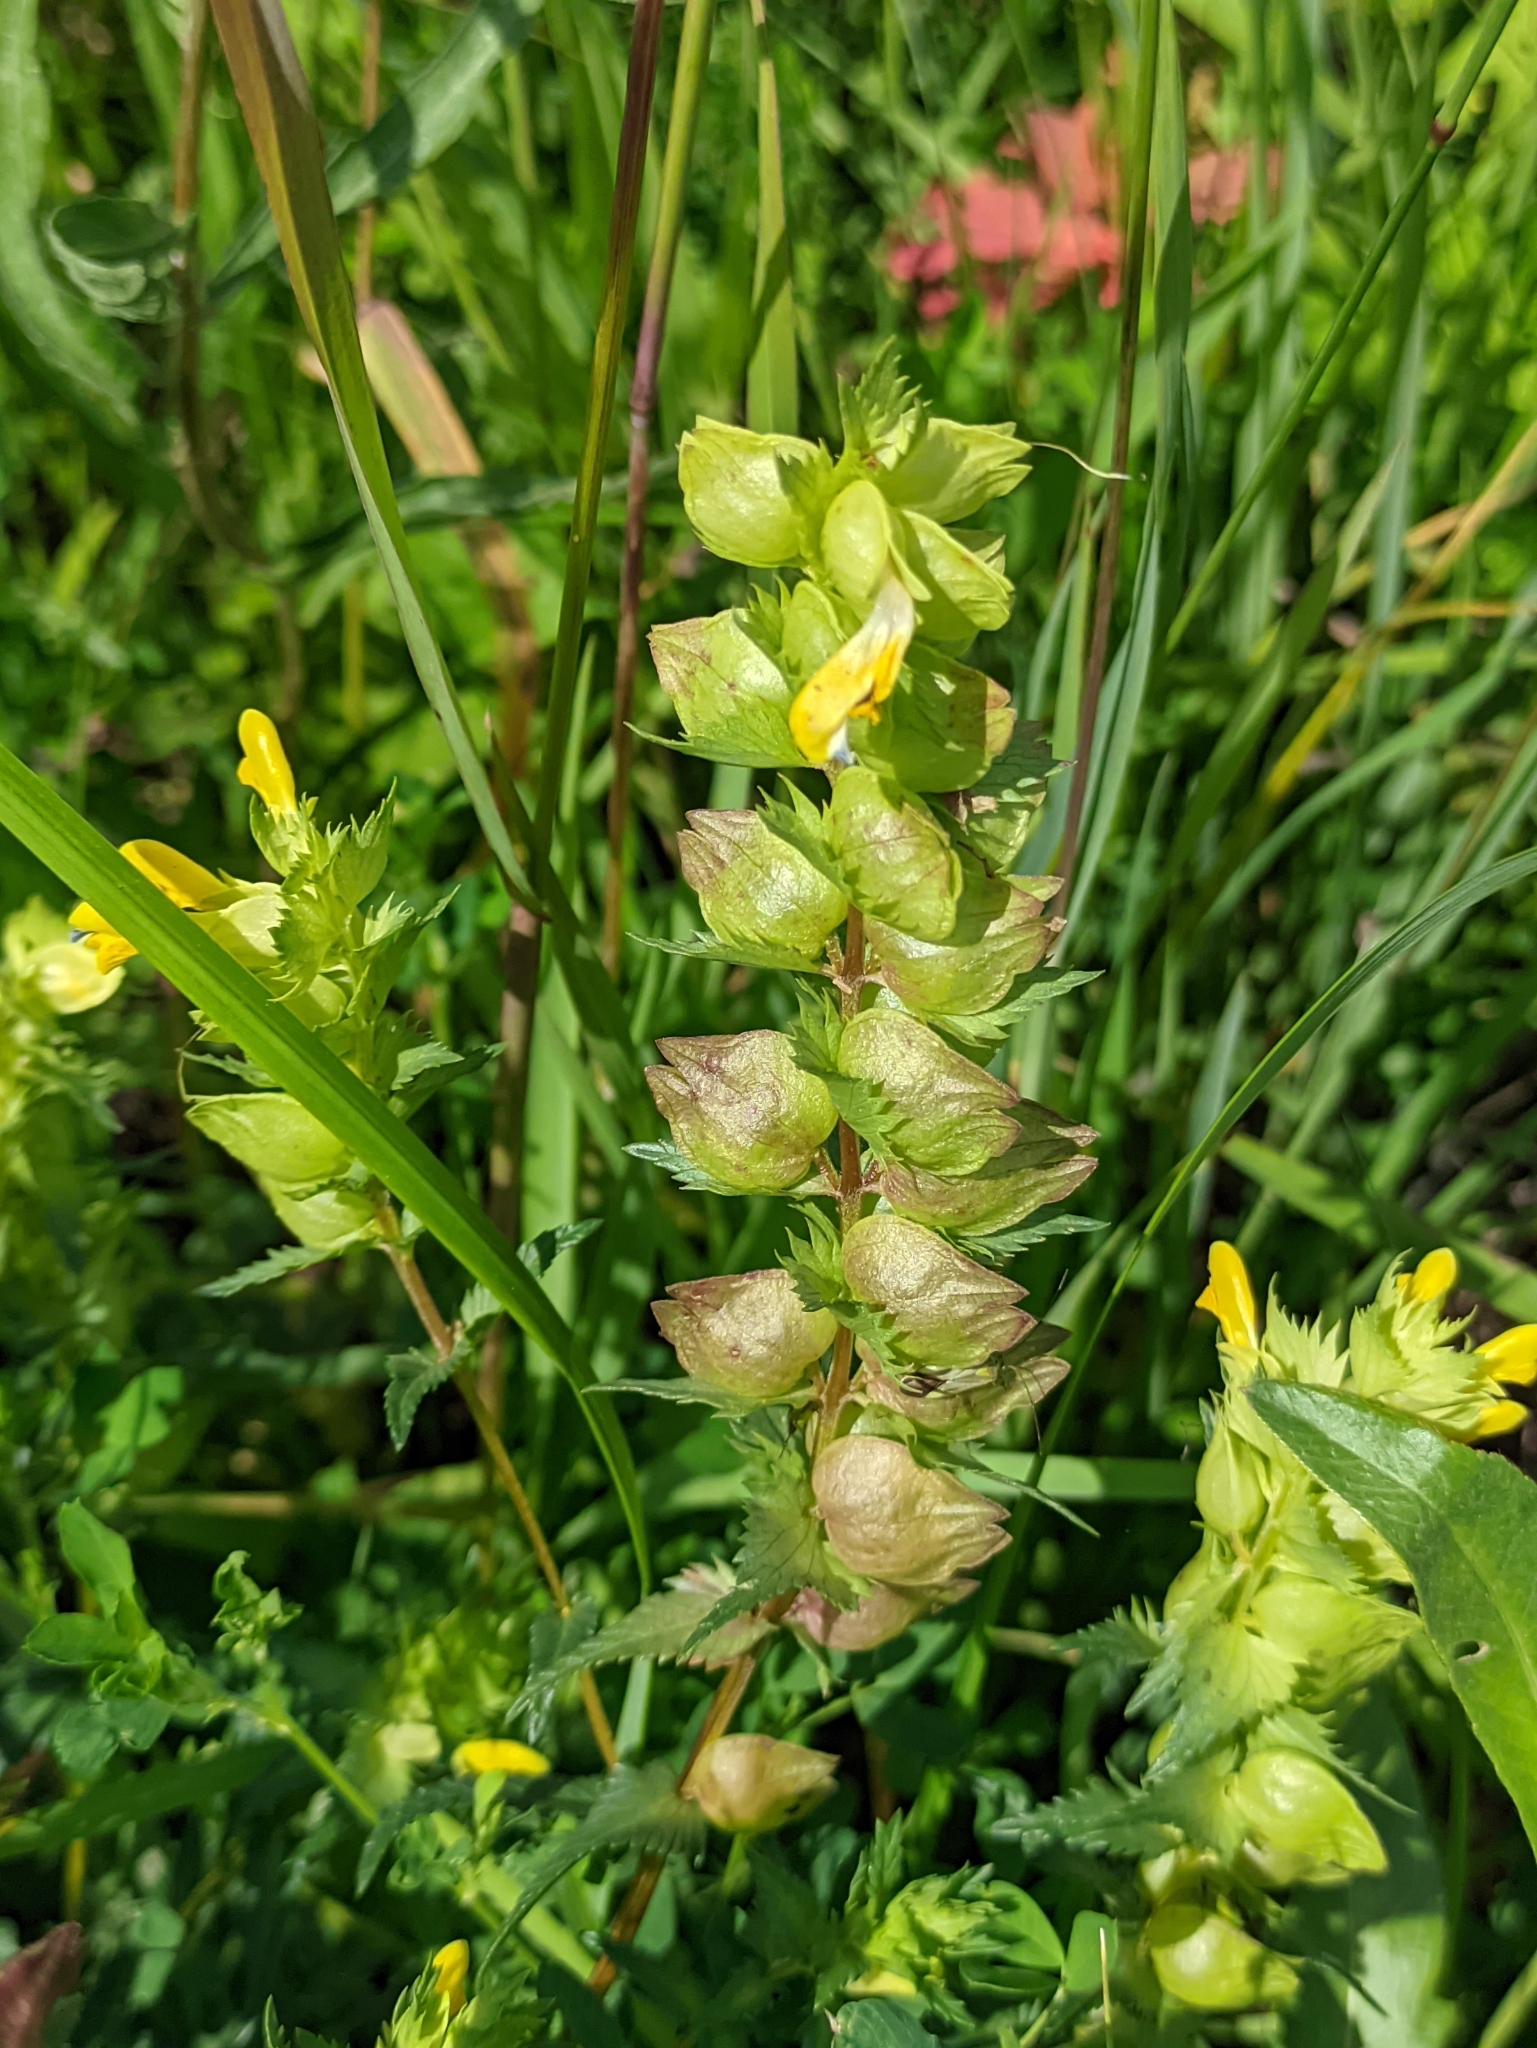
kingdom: Plantae
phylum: Tracheophyta
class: Magnoliopsida
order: Lamiales
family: Orobanchaceae
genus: Rhinanthus
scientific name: Rhinanthus serotinus
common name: Late-flowering yellow rattle
